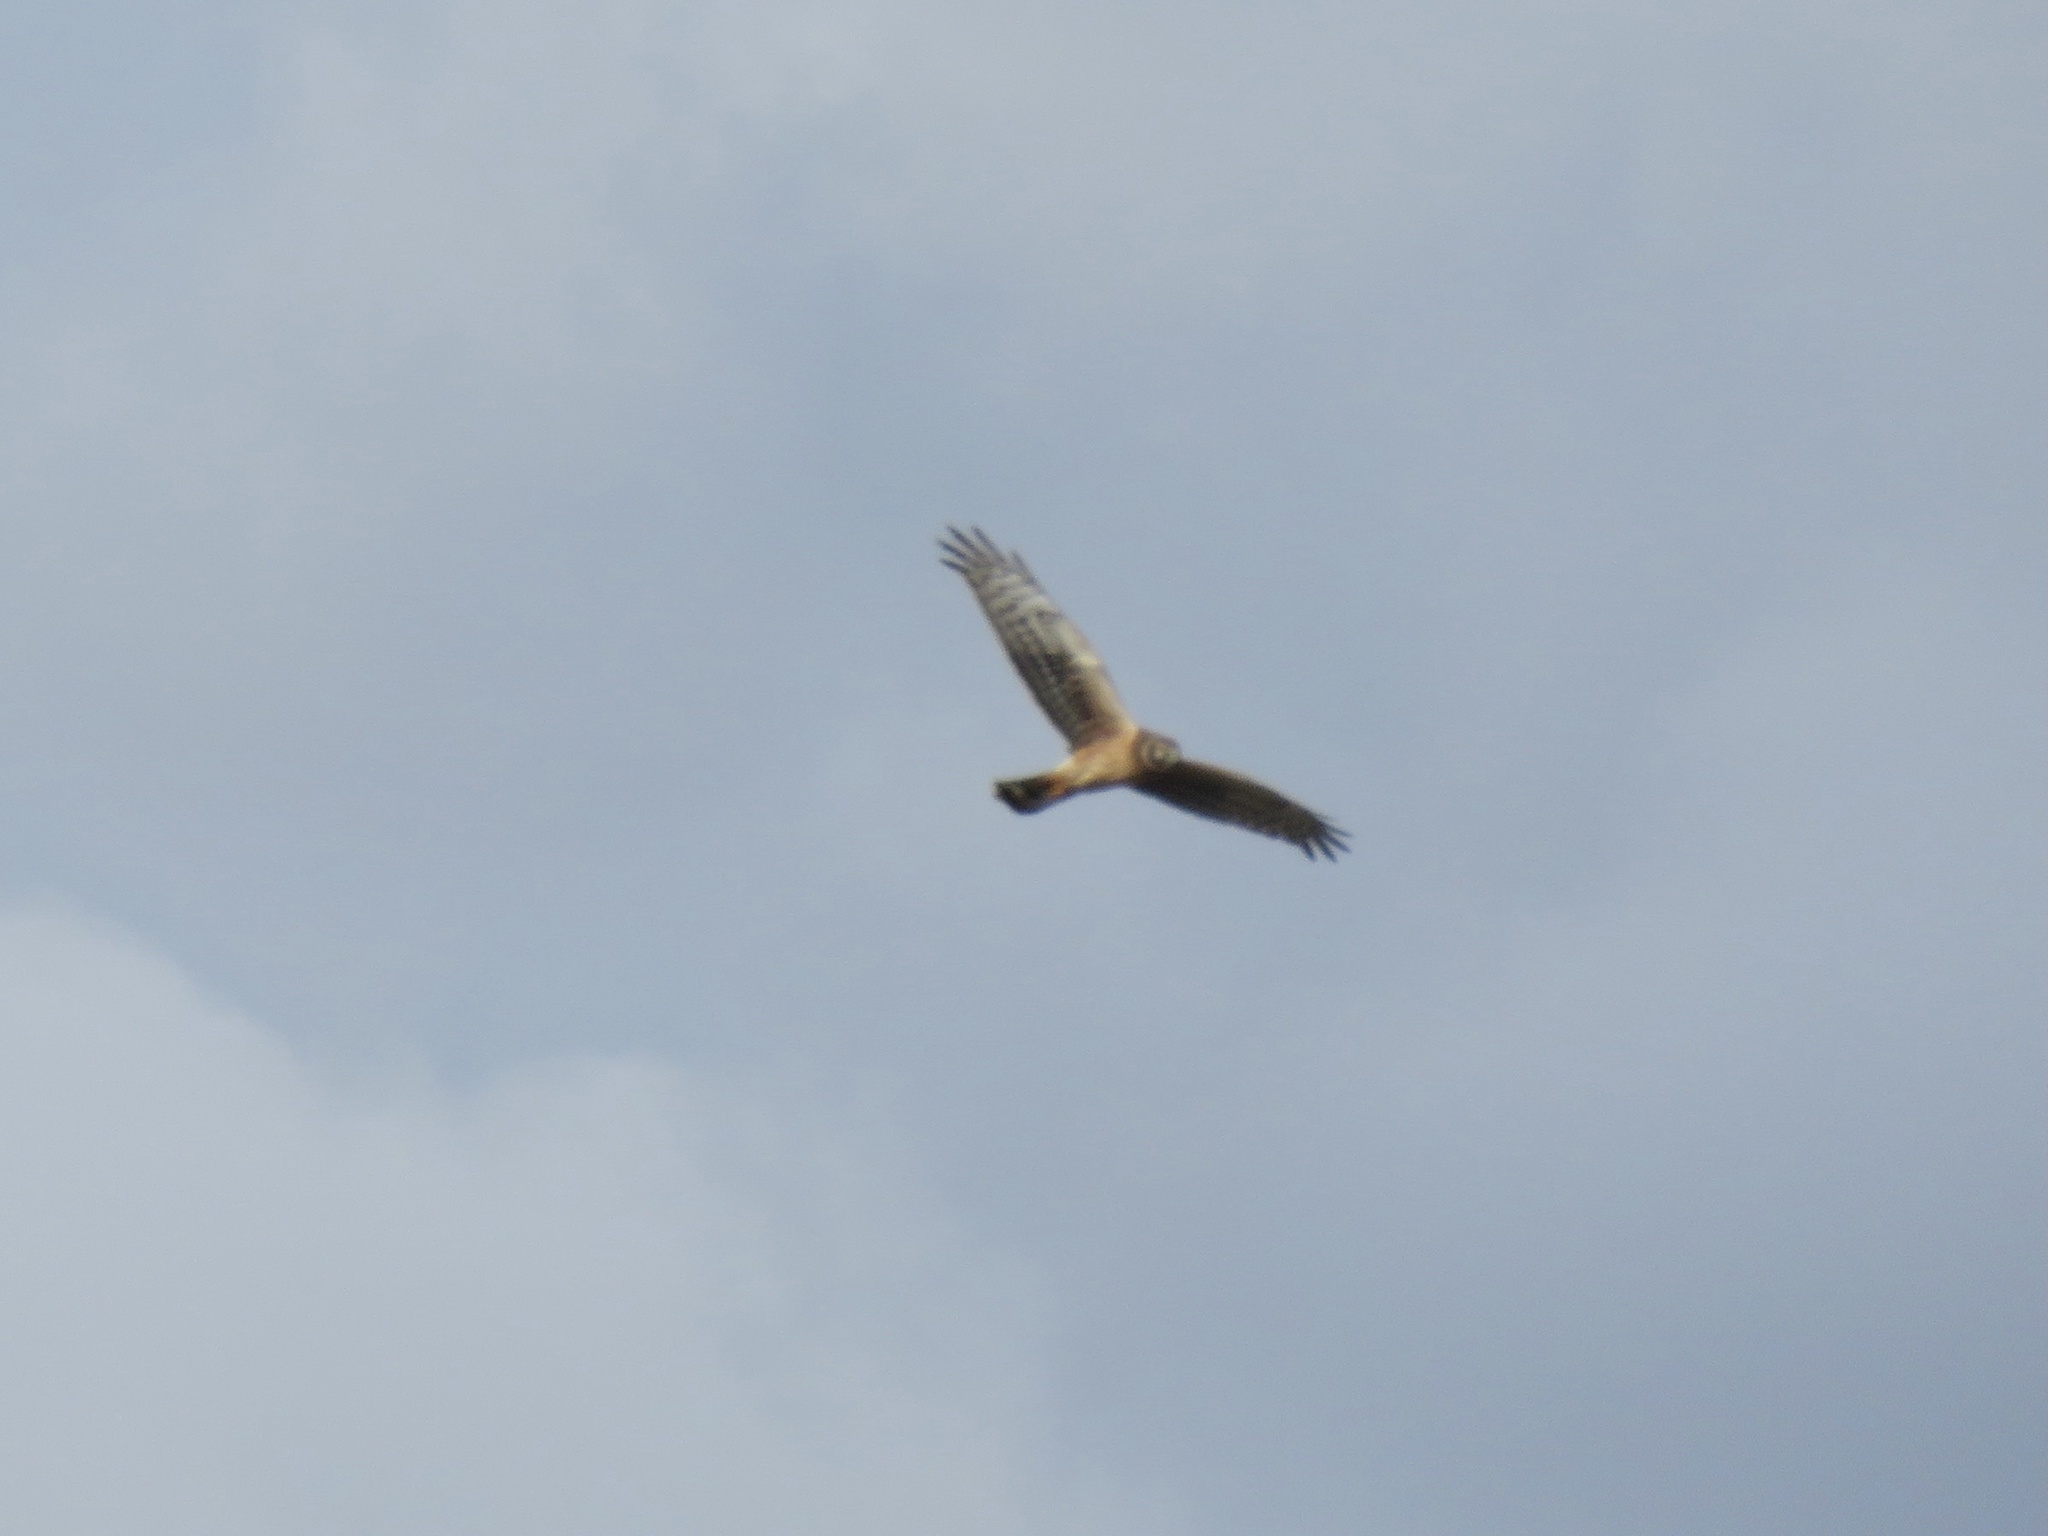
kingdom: Animalia
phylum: Chordata
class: Aves
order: Accipitriformes
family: Accipitridae
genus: Circus
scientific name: Circus cyaneus
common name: Hen harrier
